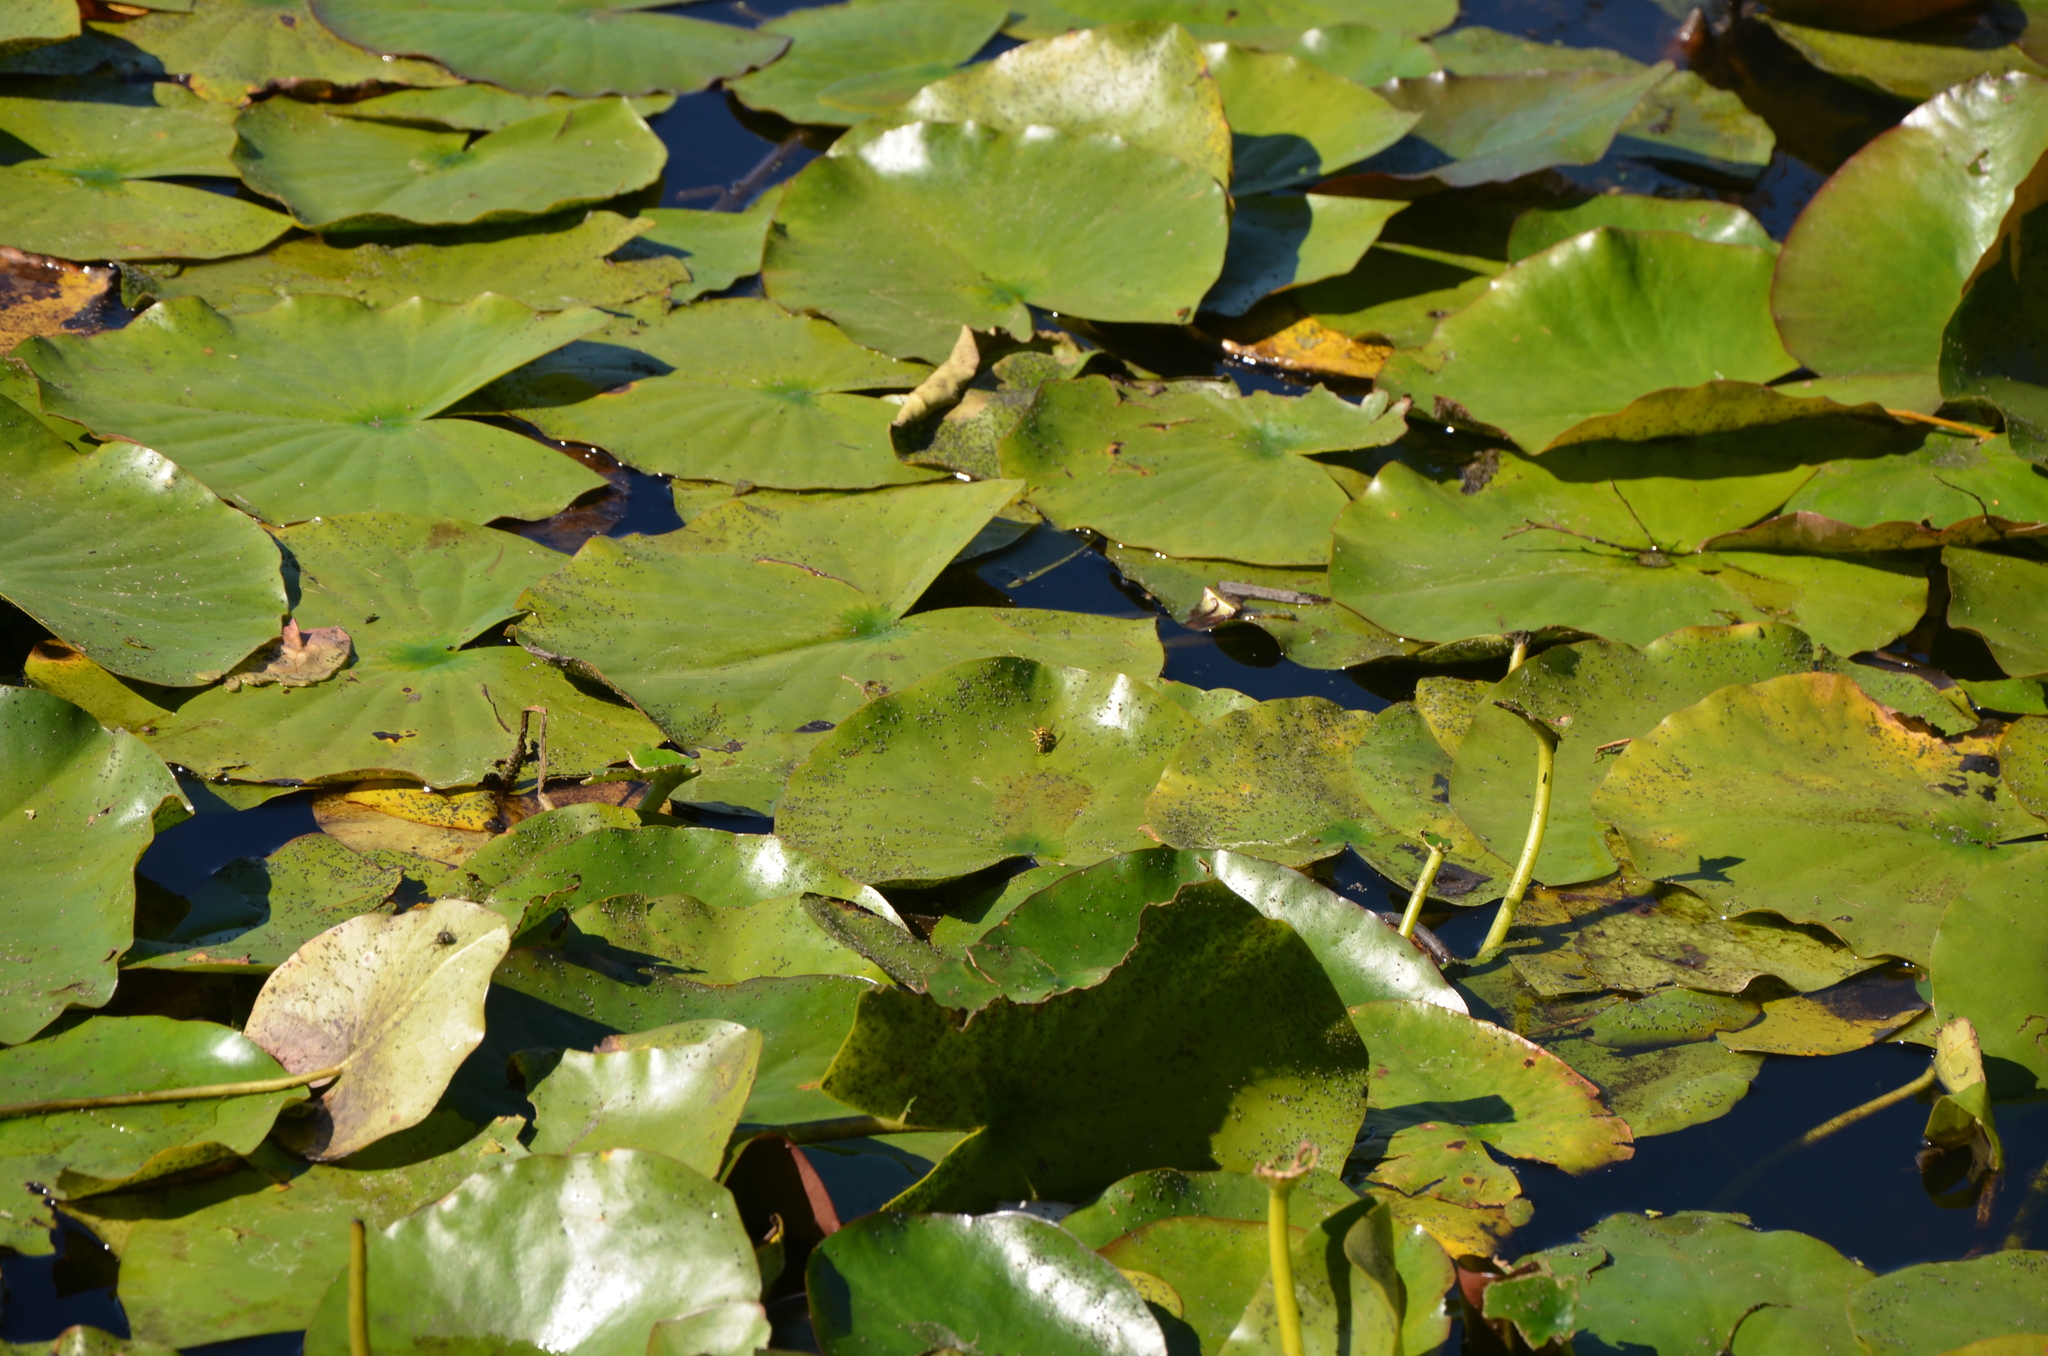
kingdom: Animalia
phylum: Arthropoda
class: Insecta
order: Hymenoptera
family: Vespidae
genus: Vespula
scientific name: Vespula
